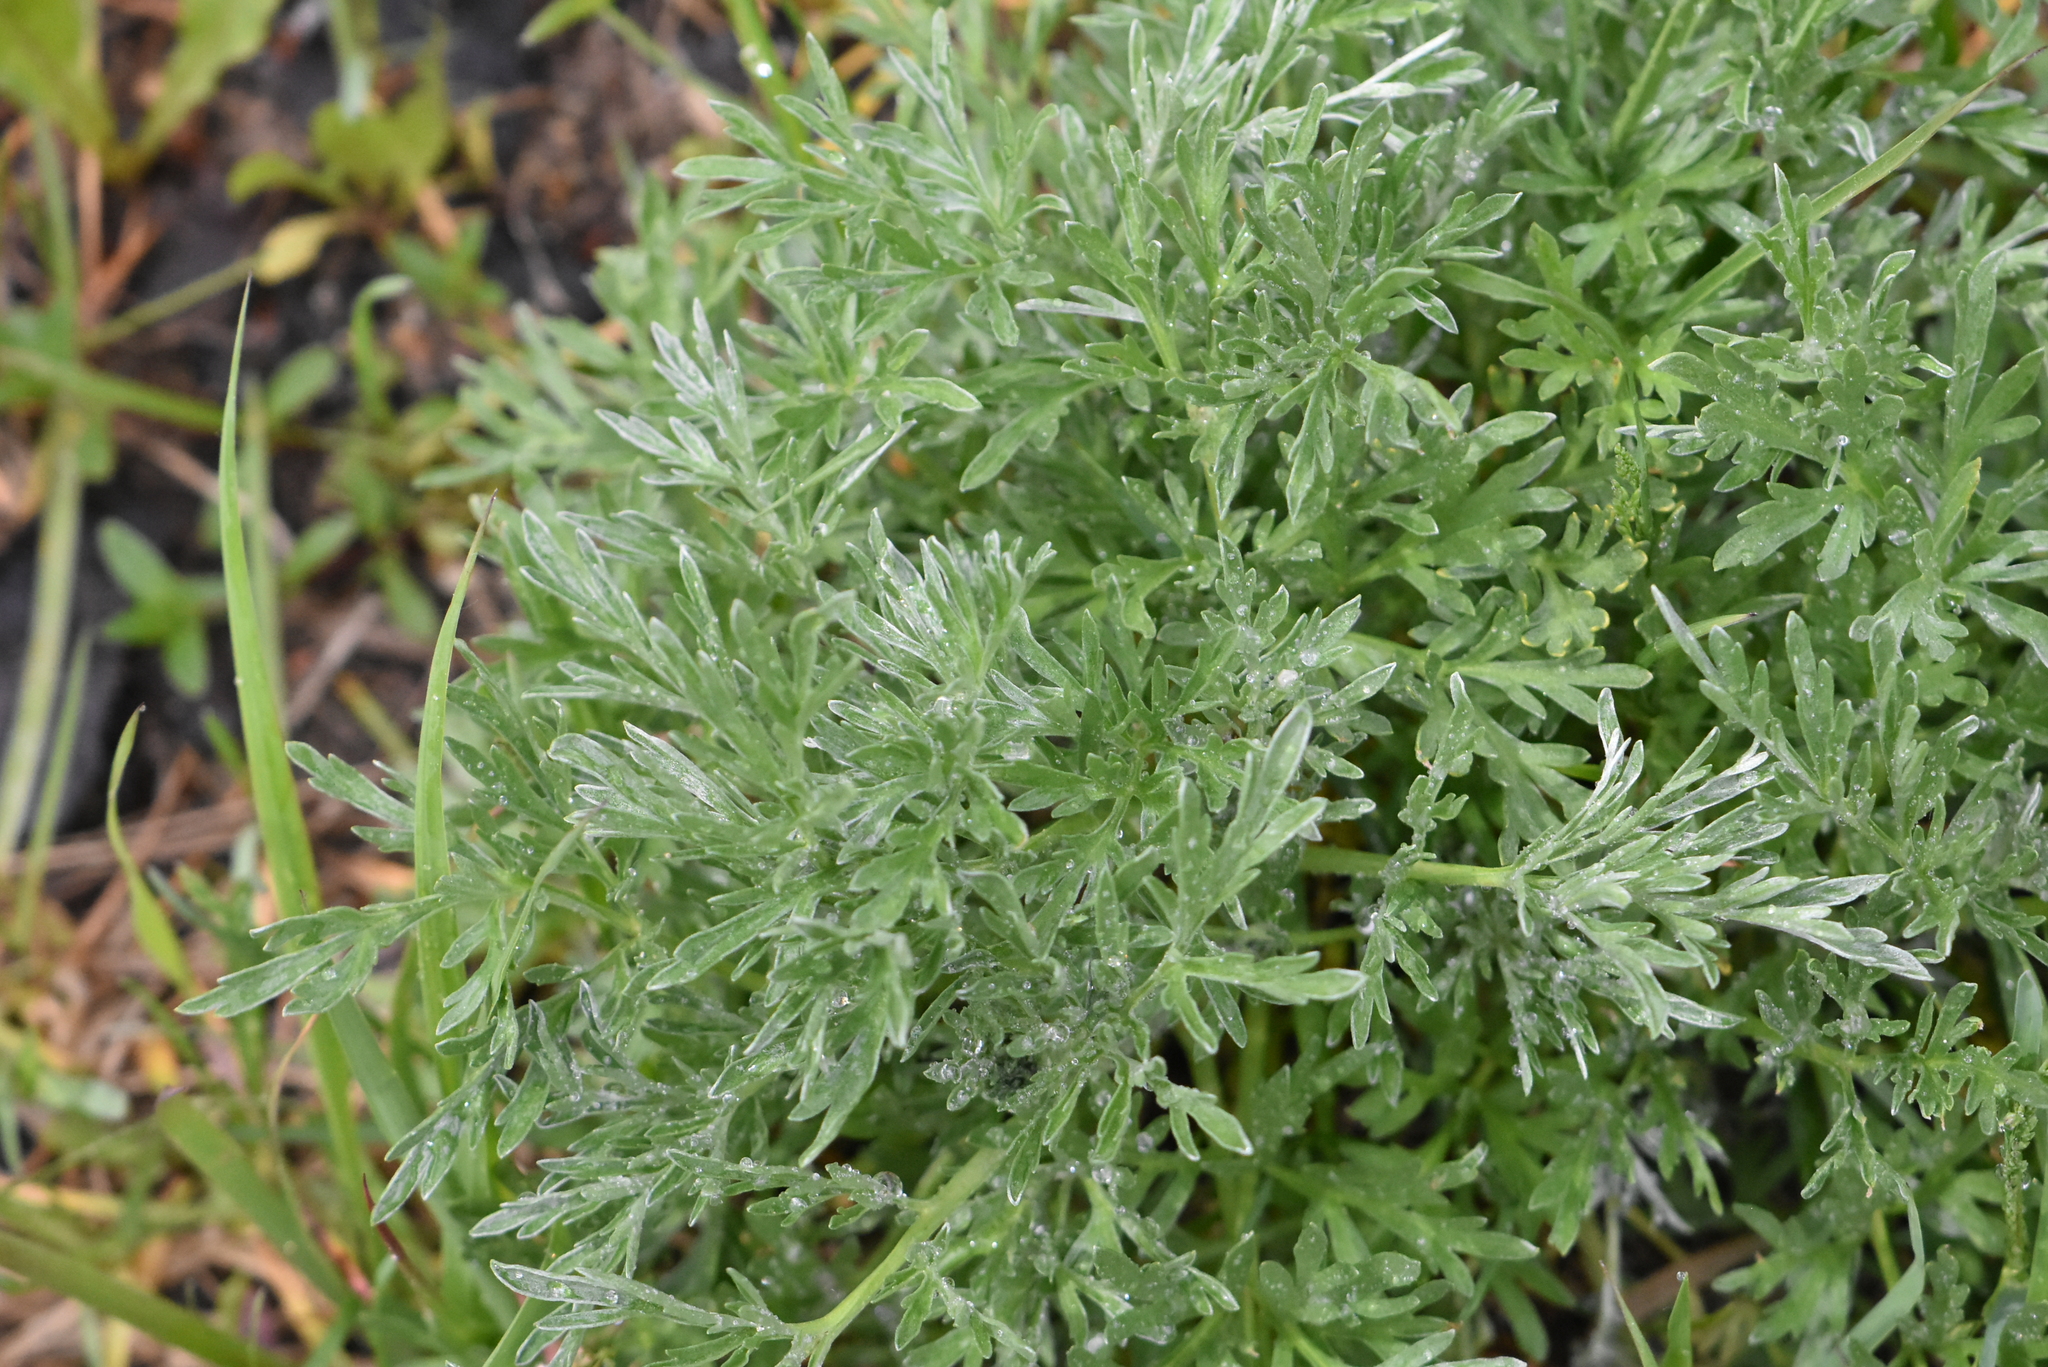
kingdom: Plantae
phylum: Tracheophyta
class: Magnoliopsida
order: Asterales
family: Asteraceae
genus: Artemisia
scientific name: Artemisia absinthium
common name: Wormwood
